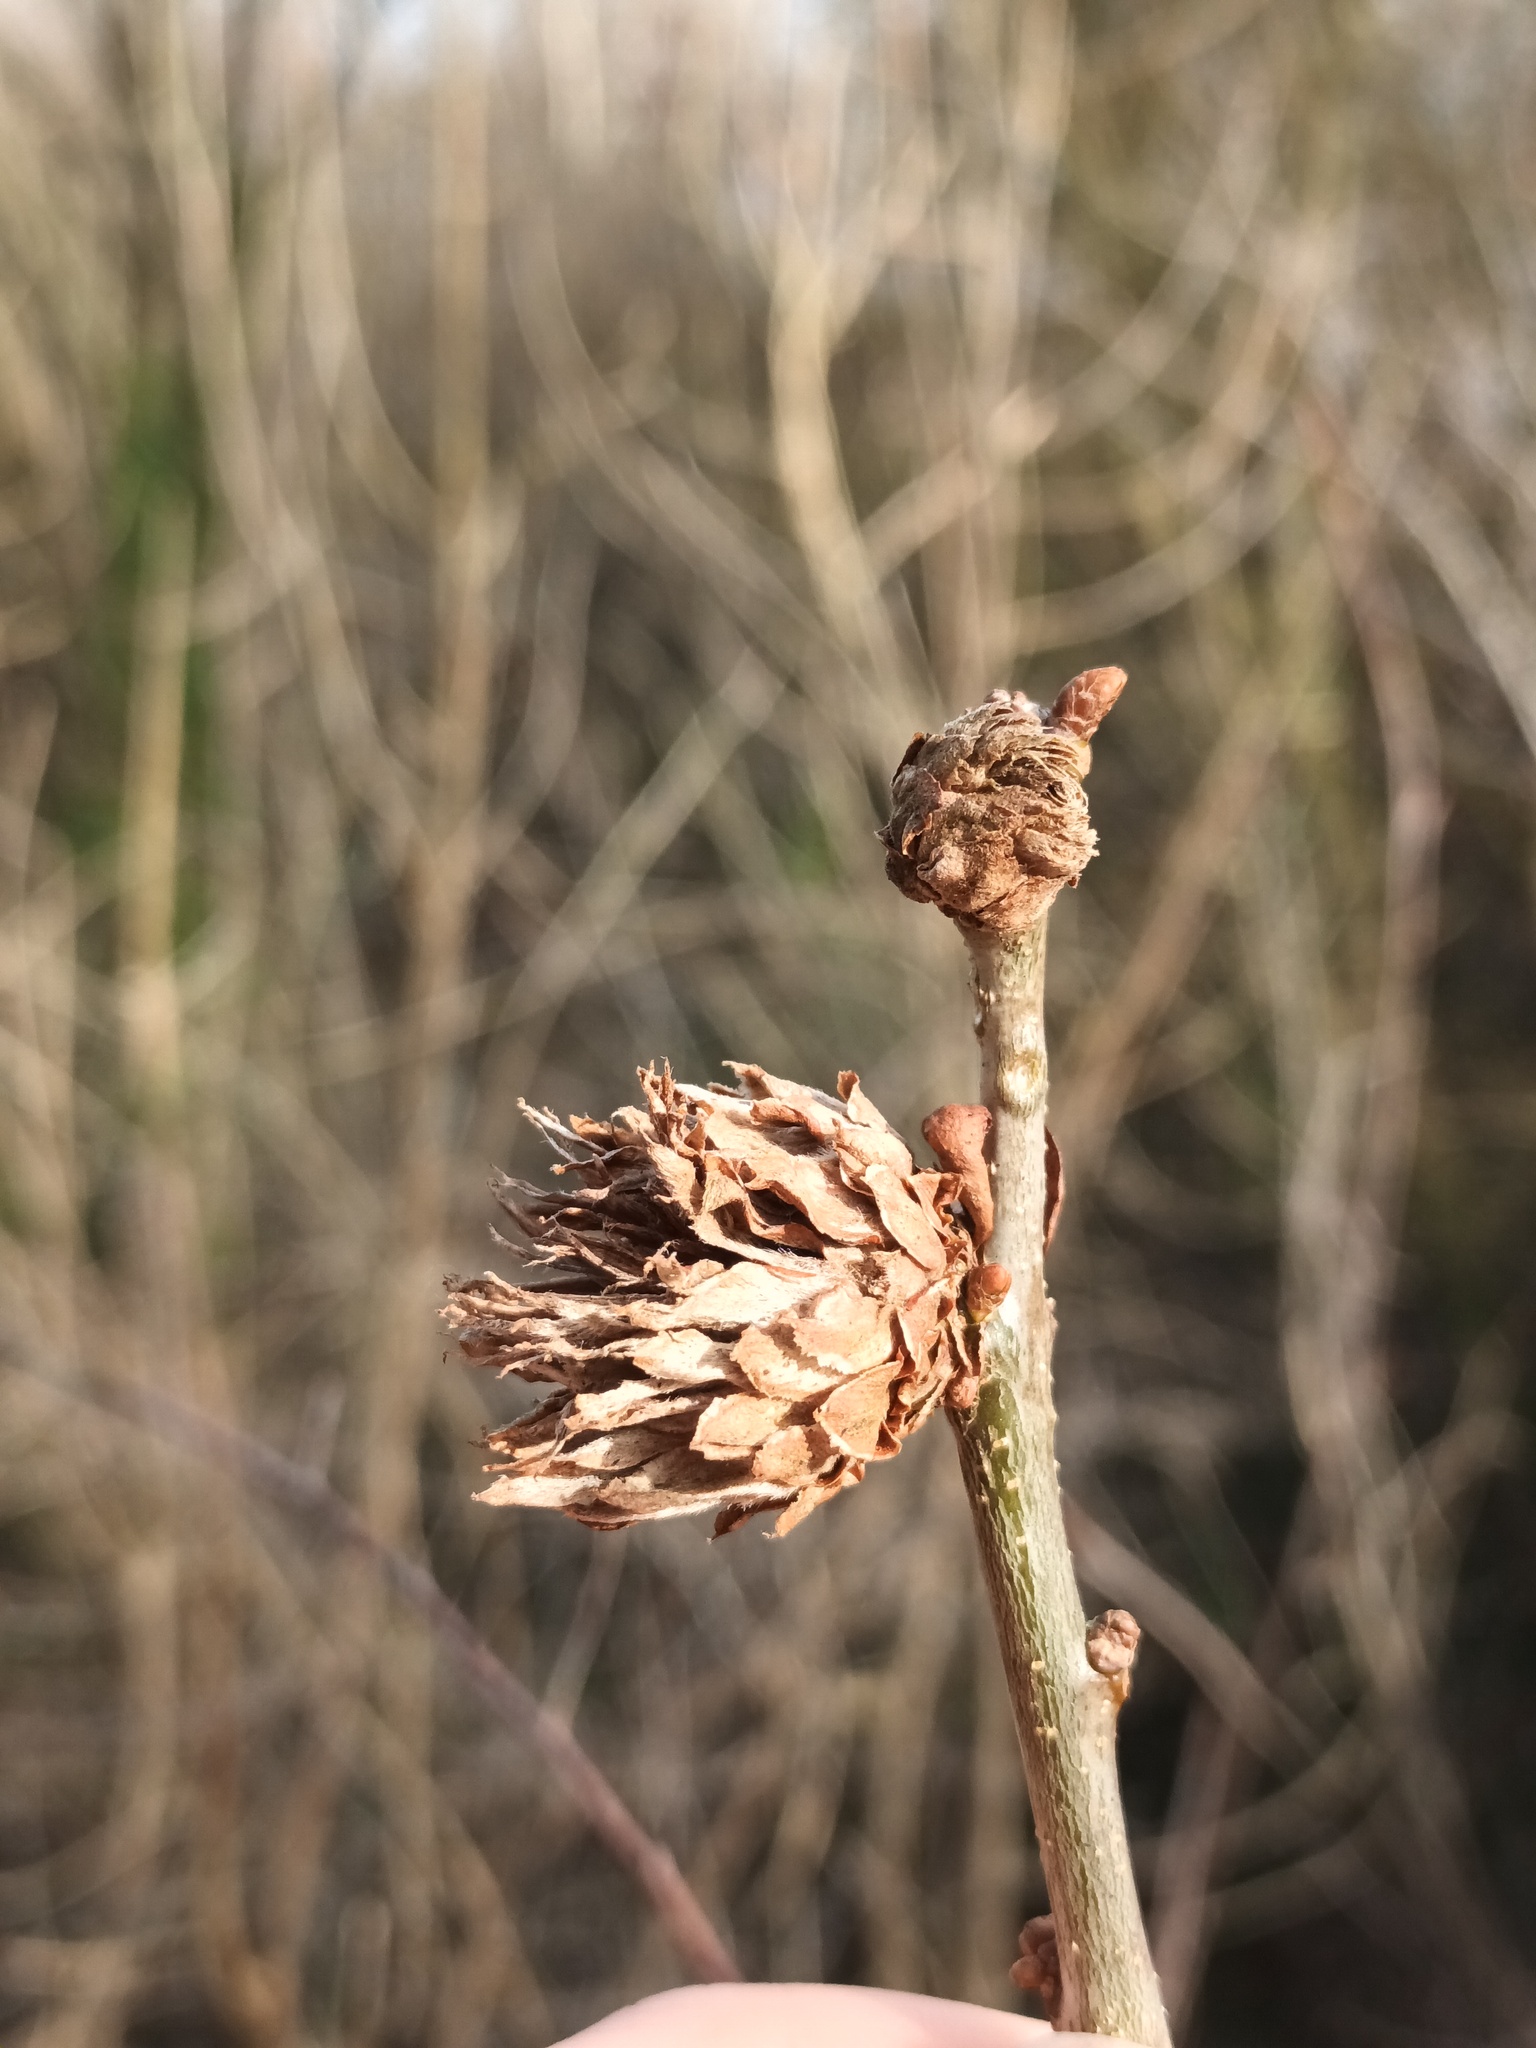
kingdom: Animalia
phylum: Arthropoda
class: Insecta
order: Hymenoptera
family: Cynipidae
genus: Andricus
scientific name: Andricus foecundatrix
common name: Artichoke gall
